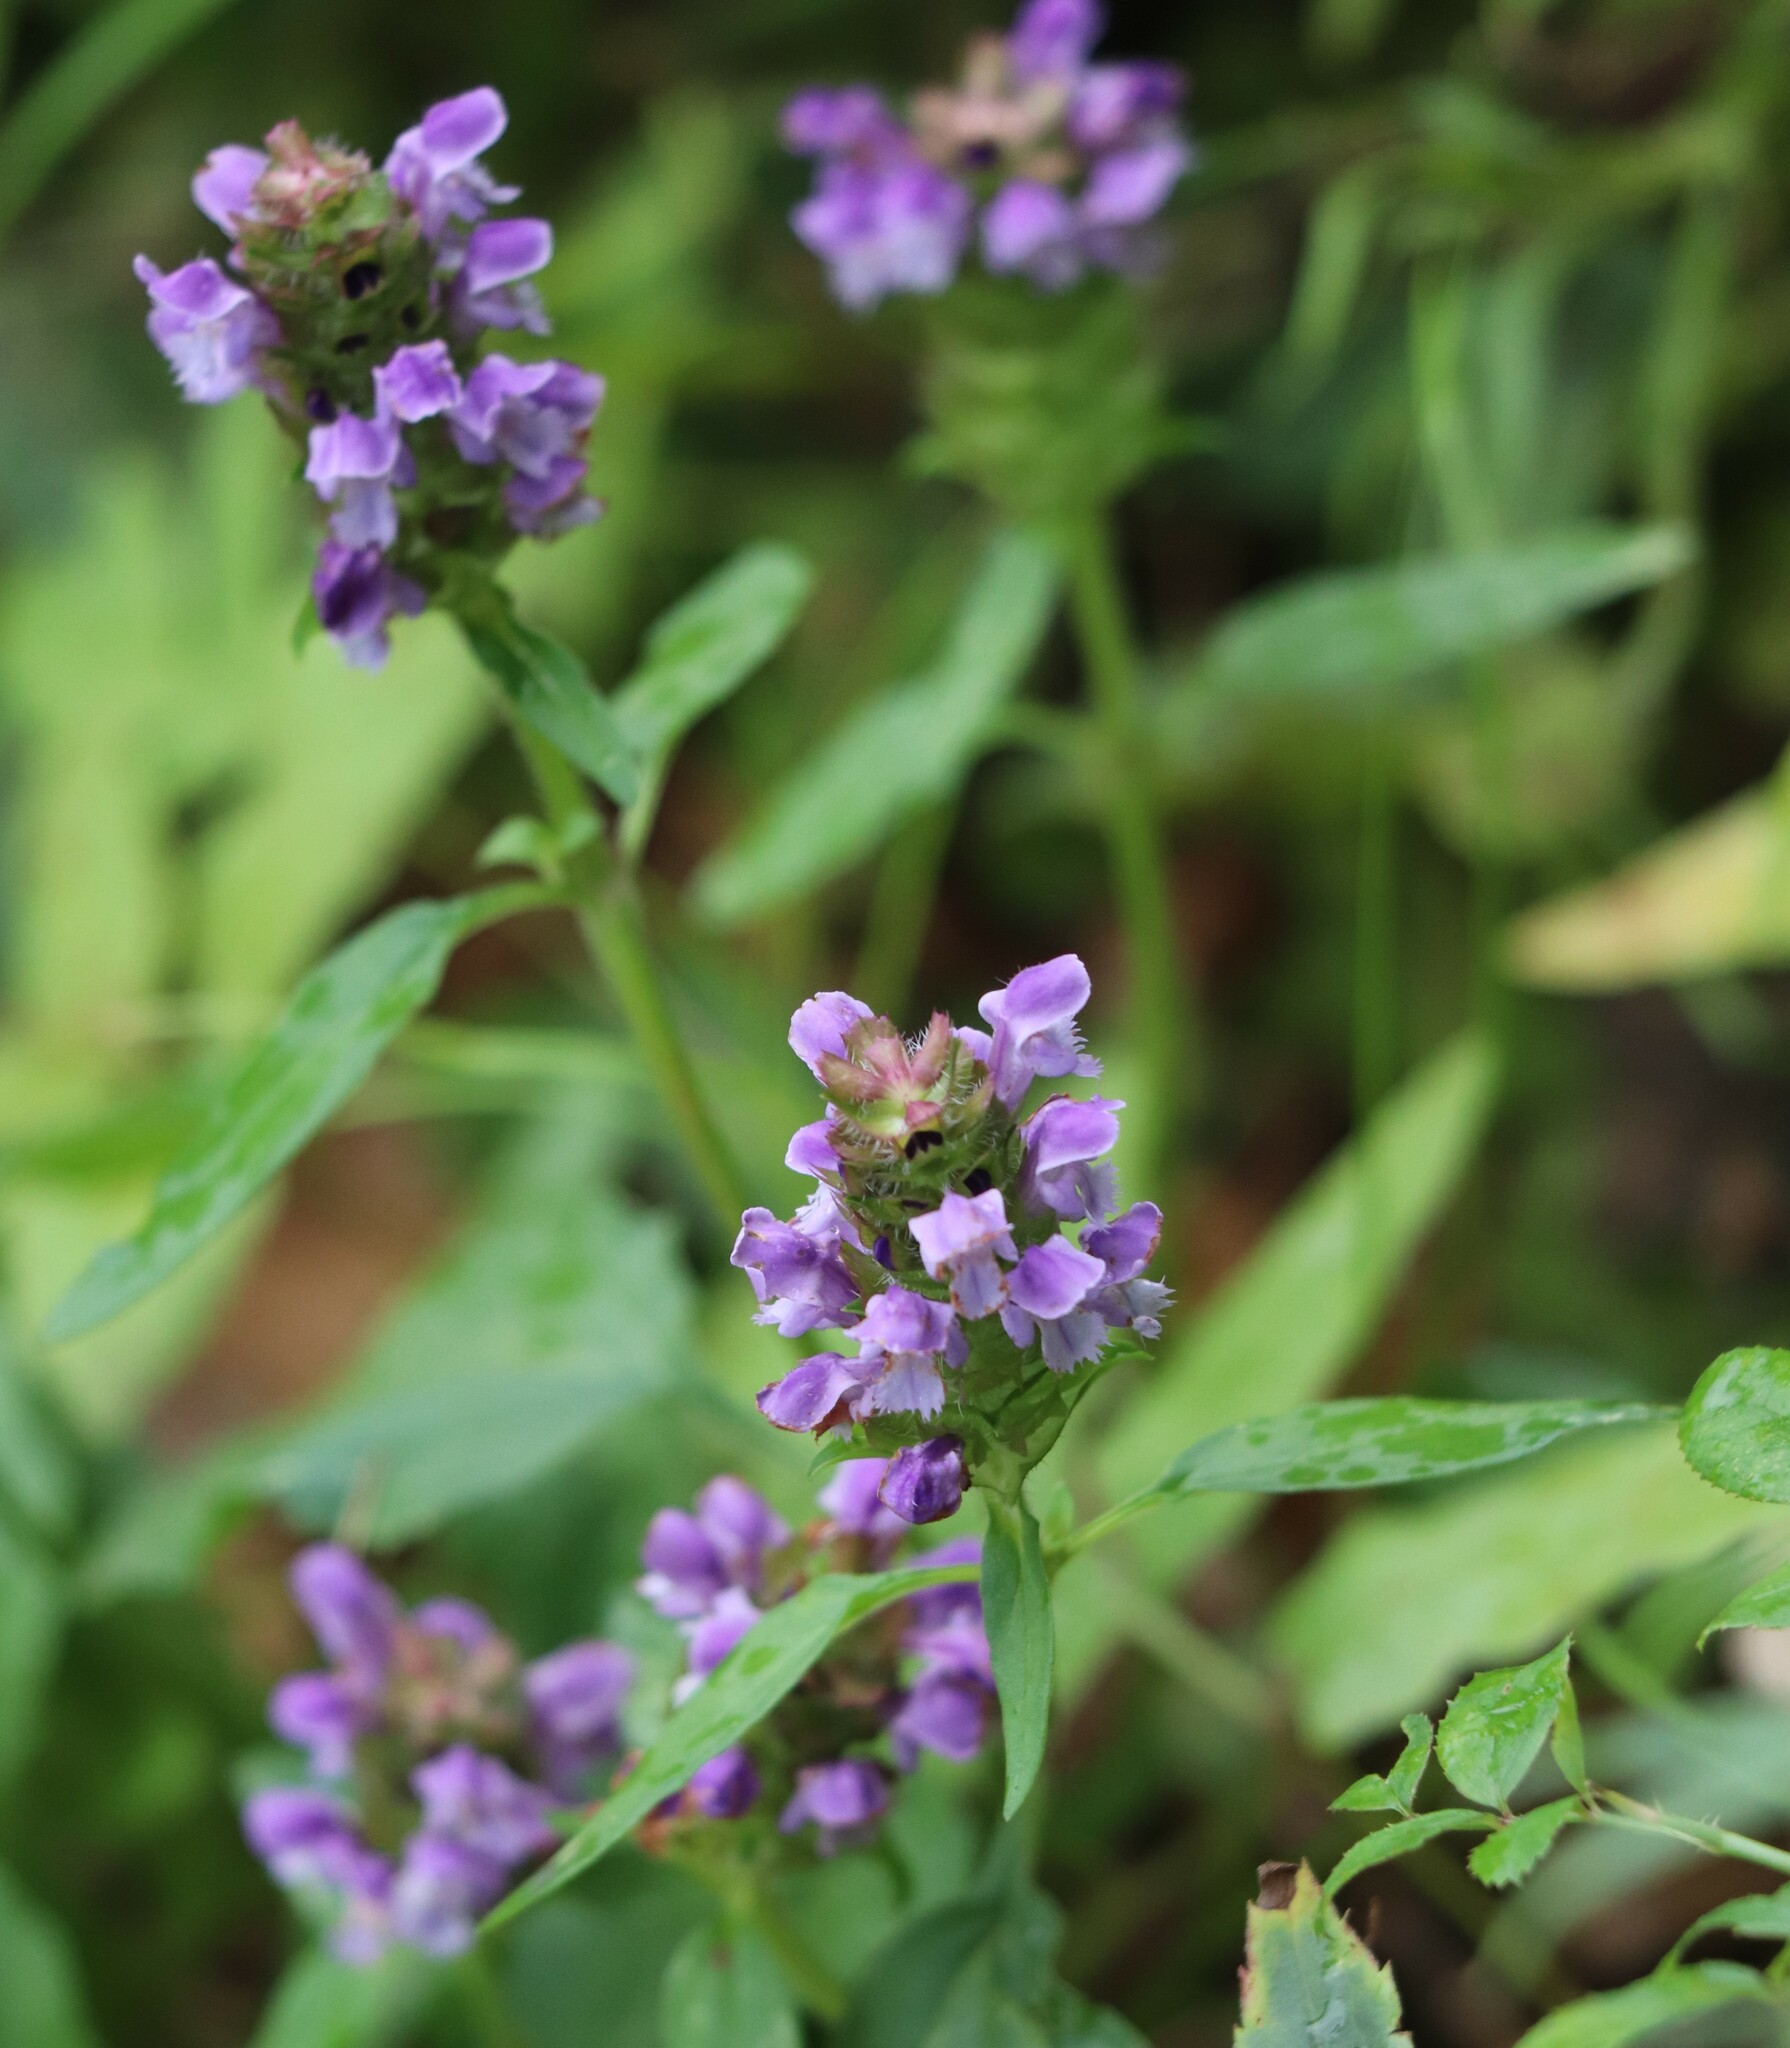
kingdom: Plantae
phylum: Tracheophyta
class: Magnoliopsida
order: Lamiales
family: Lamiaceae
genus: Prunella
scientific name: Prunella vulgaris
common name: Heal-all
